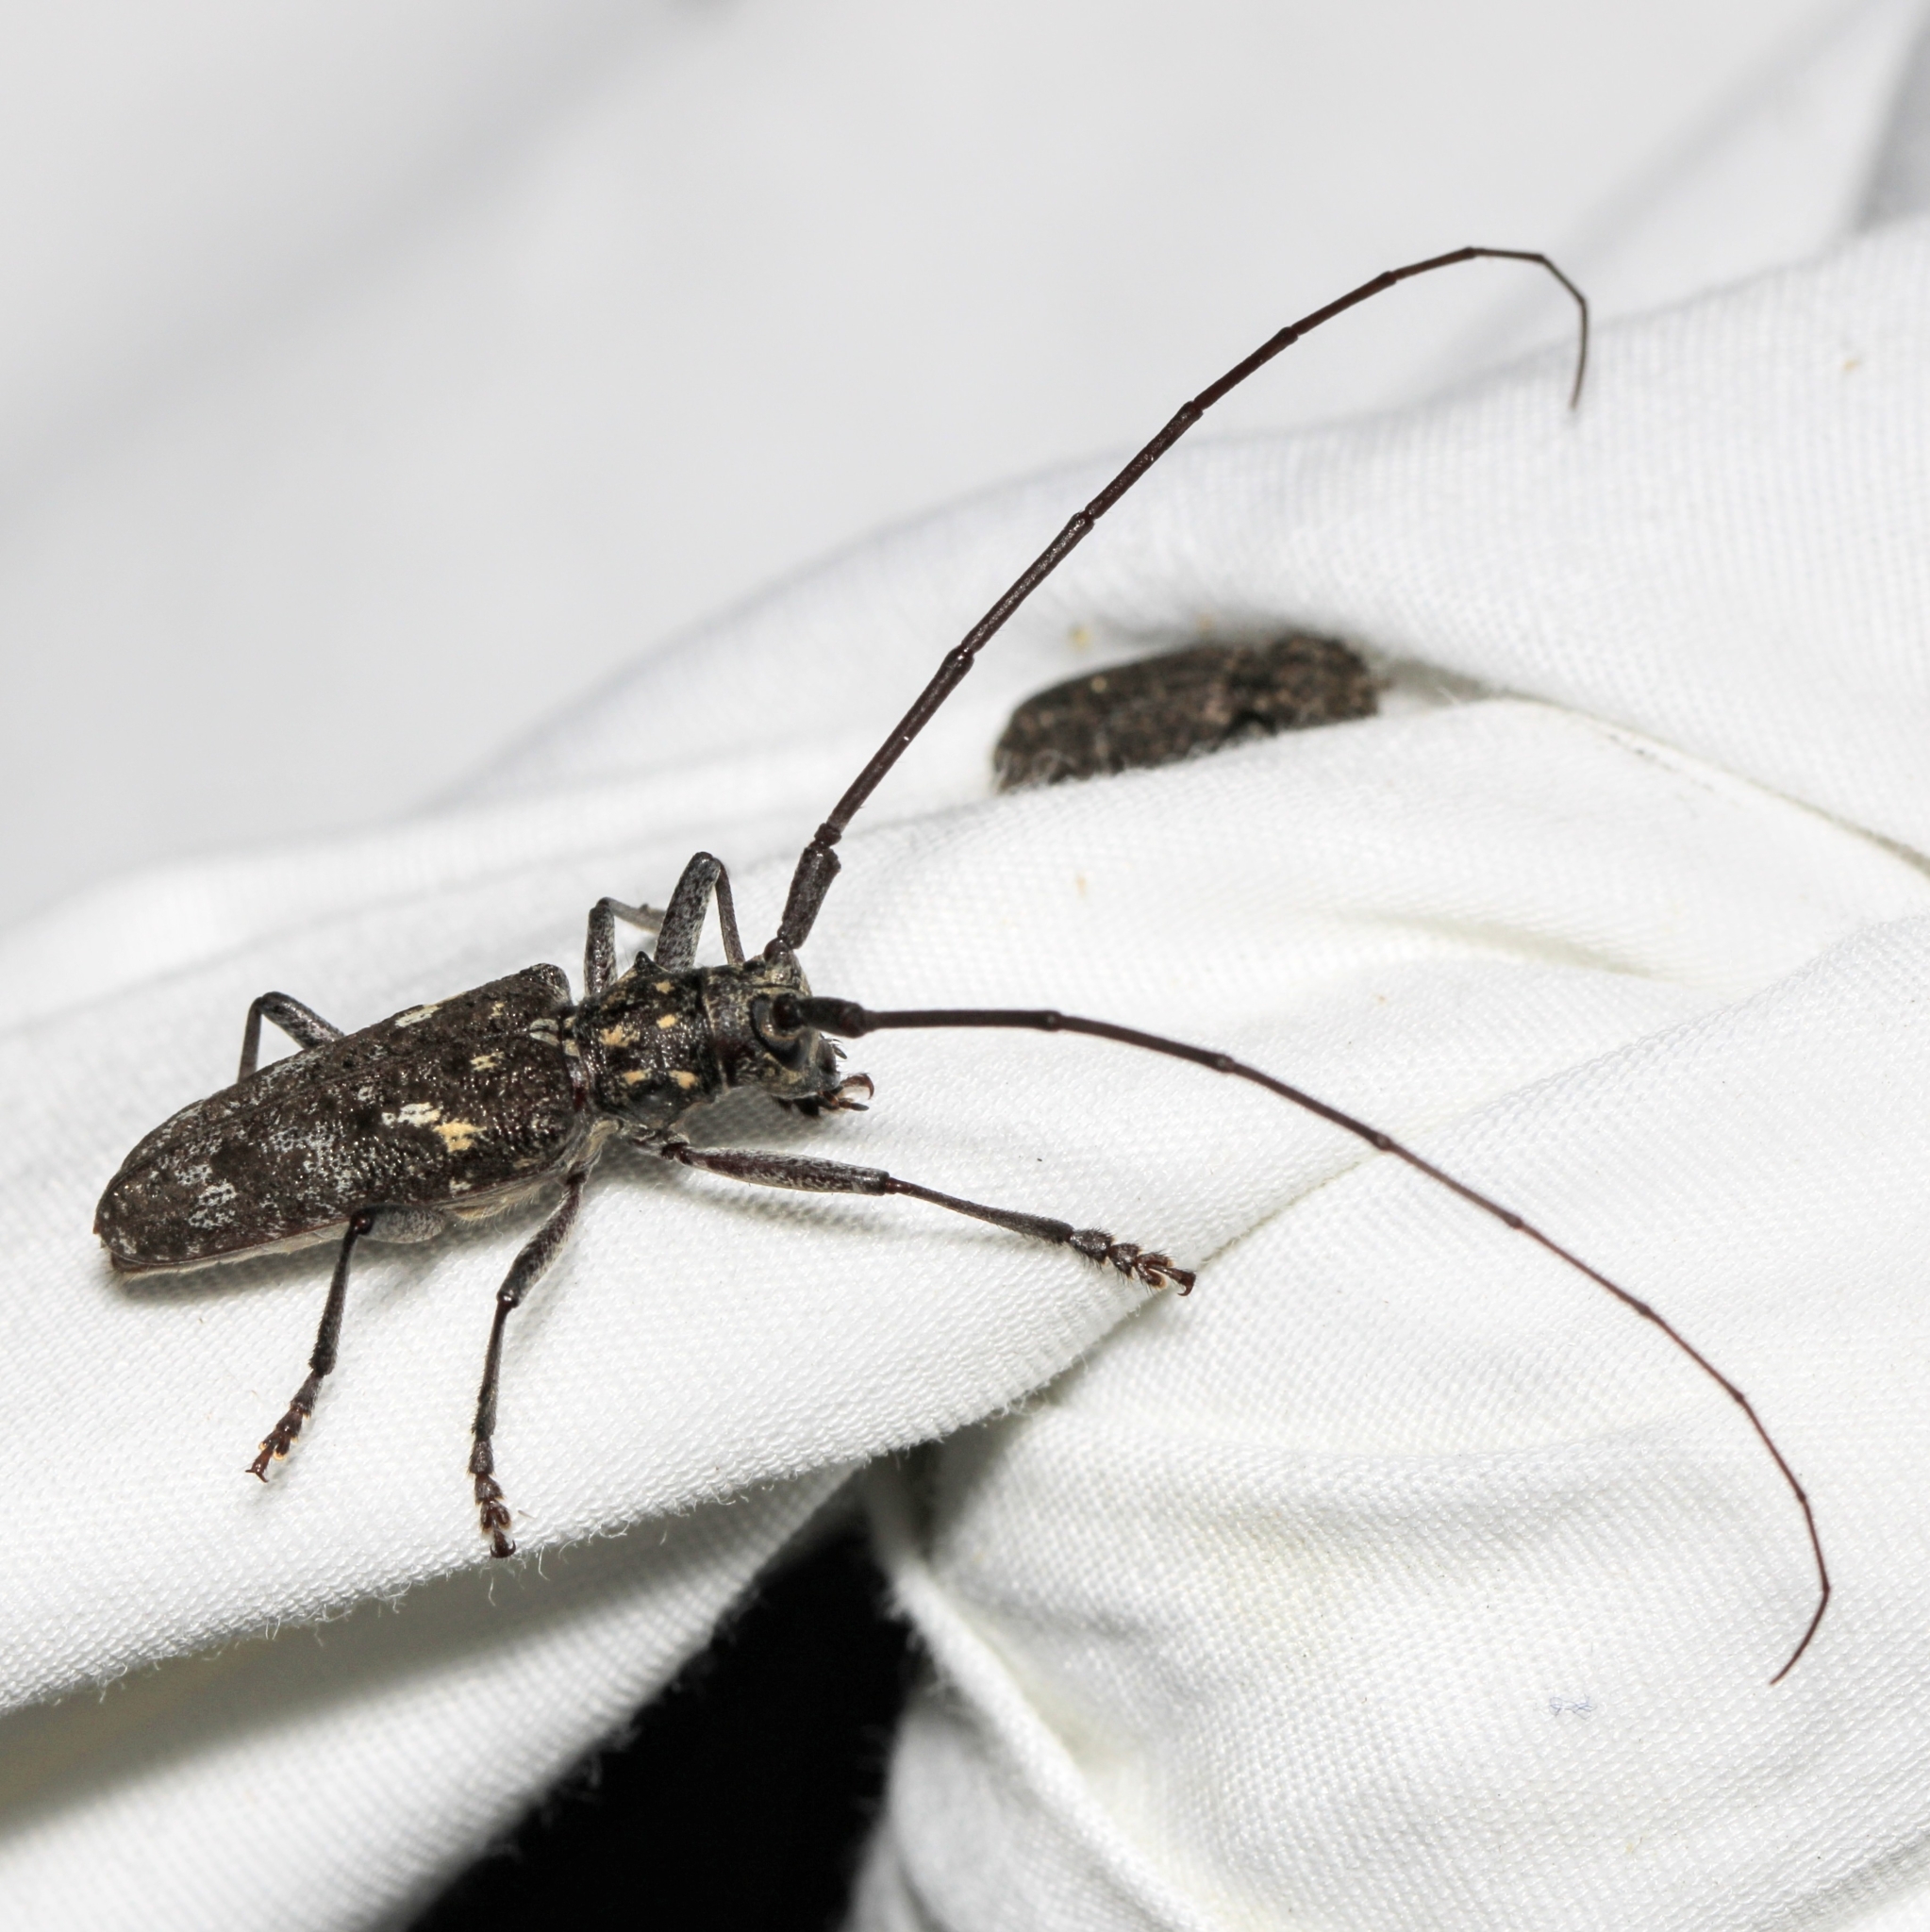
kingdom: Animalia
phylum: Arthropoda
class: Insecta
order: Coleoptera
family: Cerambycidae
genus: Monochamus
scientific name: Monochamus scutellatus
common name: White-spotted sawyer beetle
